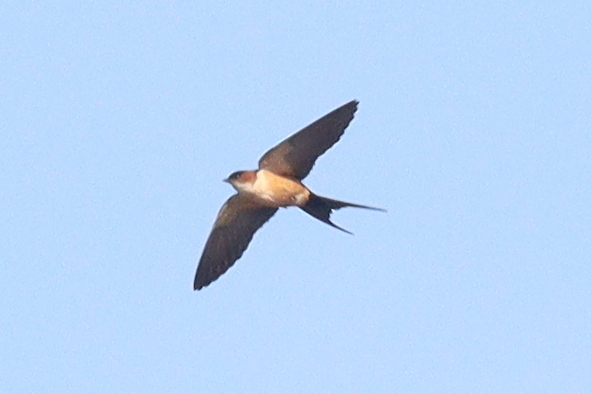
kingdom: Animalia
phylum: Chordata
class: Aves
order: Passeriformes
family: Hirundinidae
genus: Cecropis
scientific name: Cecropis daurica
